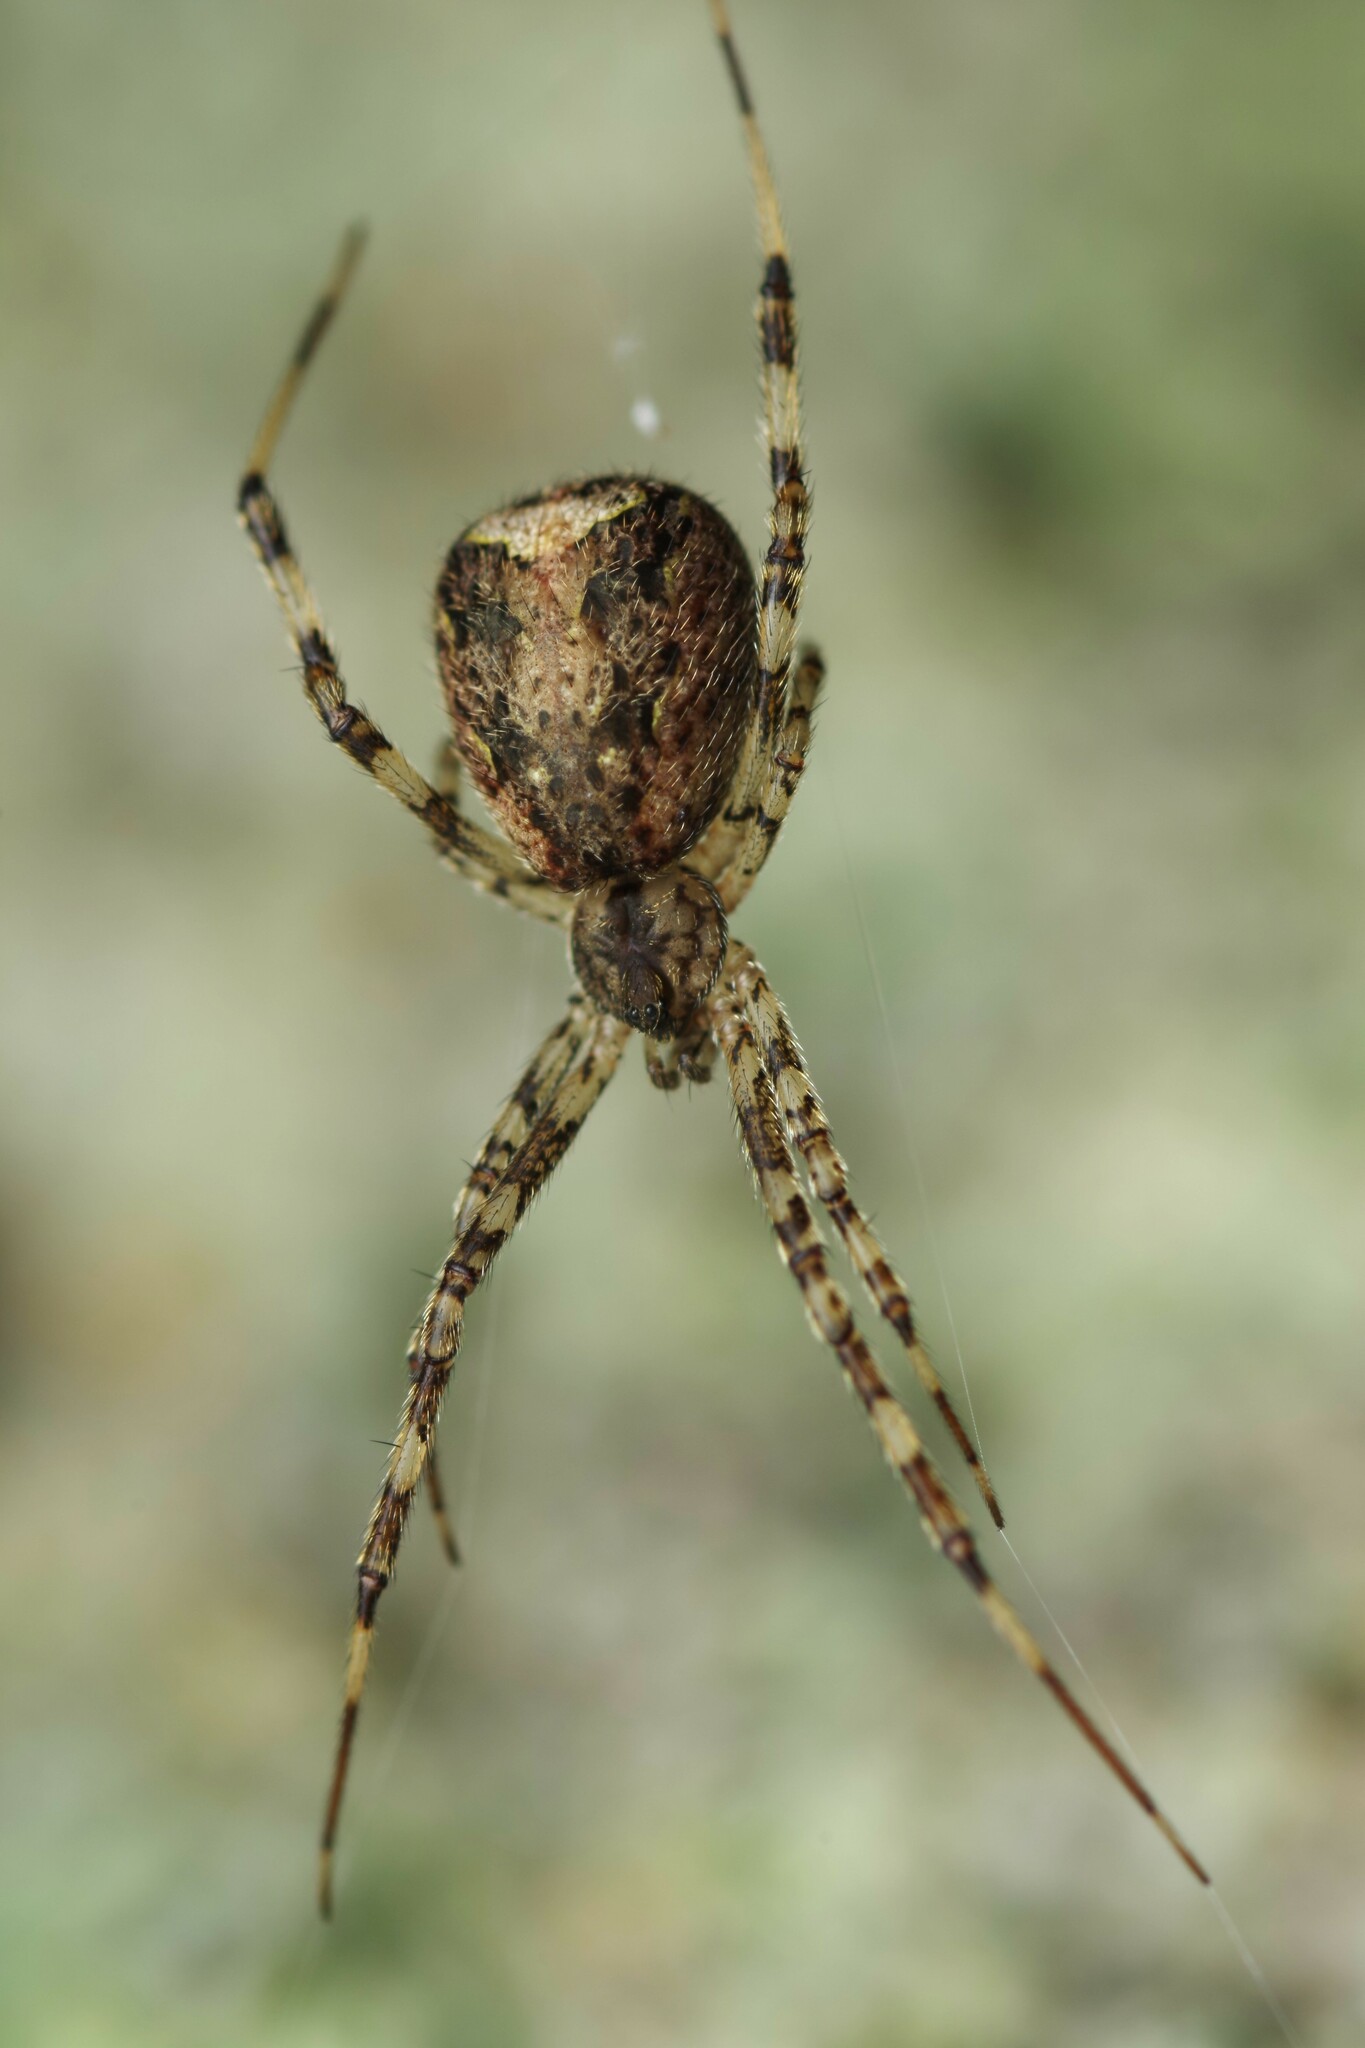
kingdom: Animalia
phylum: Arthropoda
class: Arachnida
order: Araneae
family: Theridiidae
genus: Episinus
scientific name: Episinus maculipes
